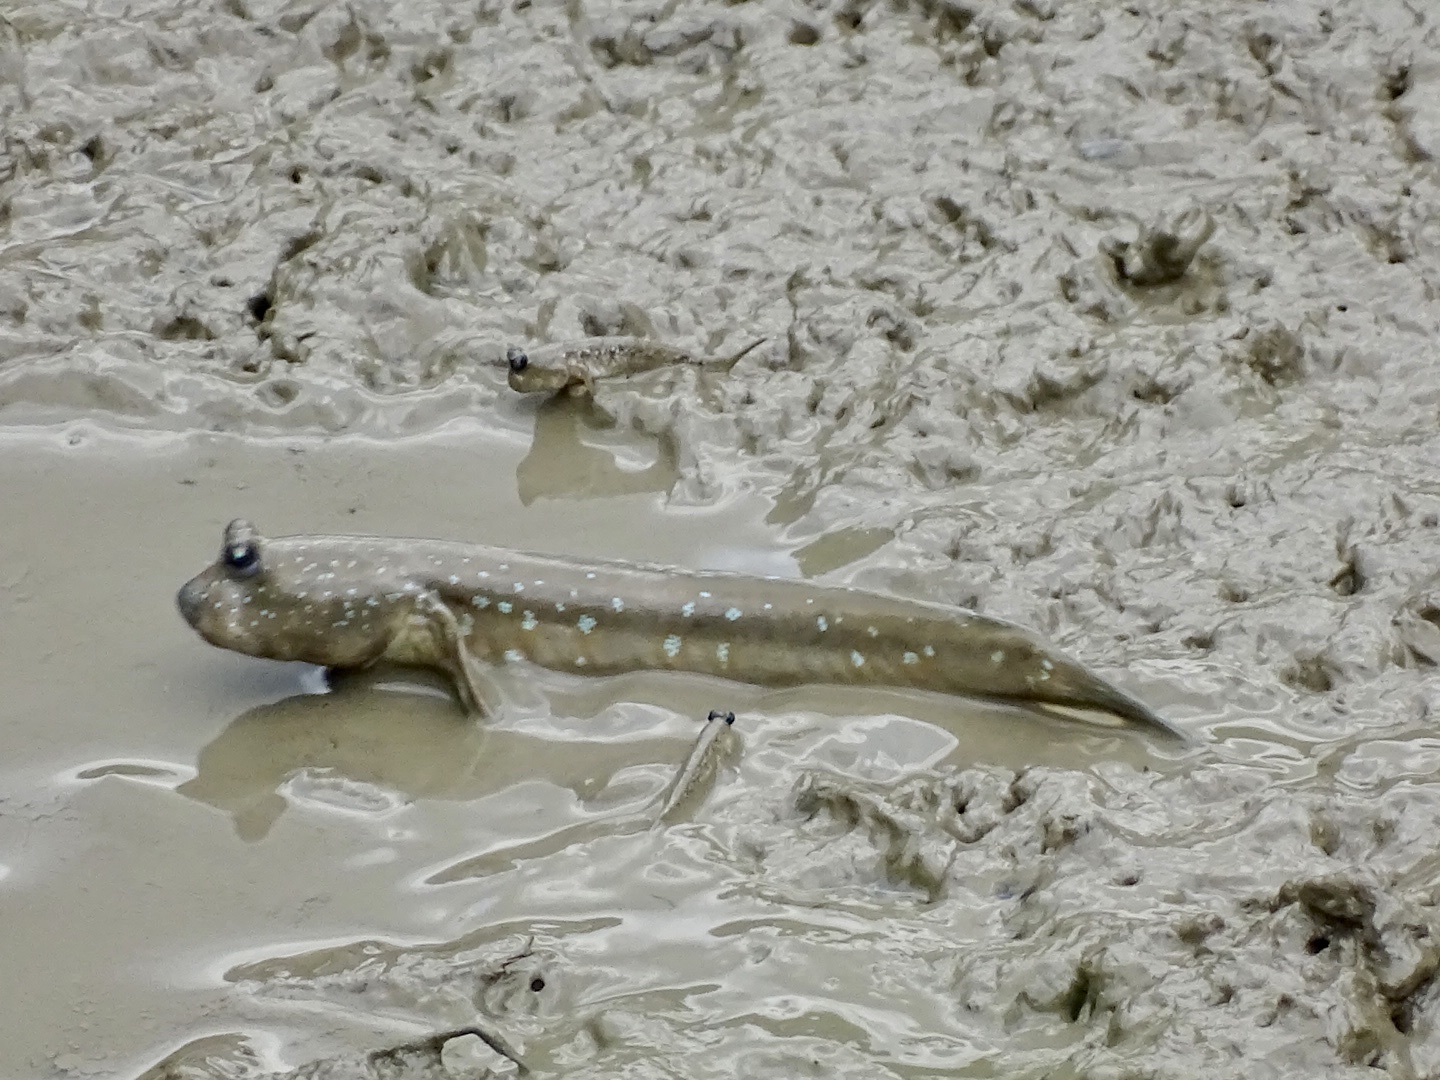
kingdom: Animalia
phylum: Chordata
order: Perciformes
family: Gobiidae
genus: Boleophthalmus
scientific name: Boleophthalmus pectinirostris
